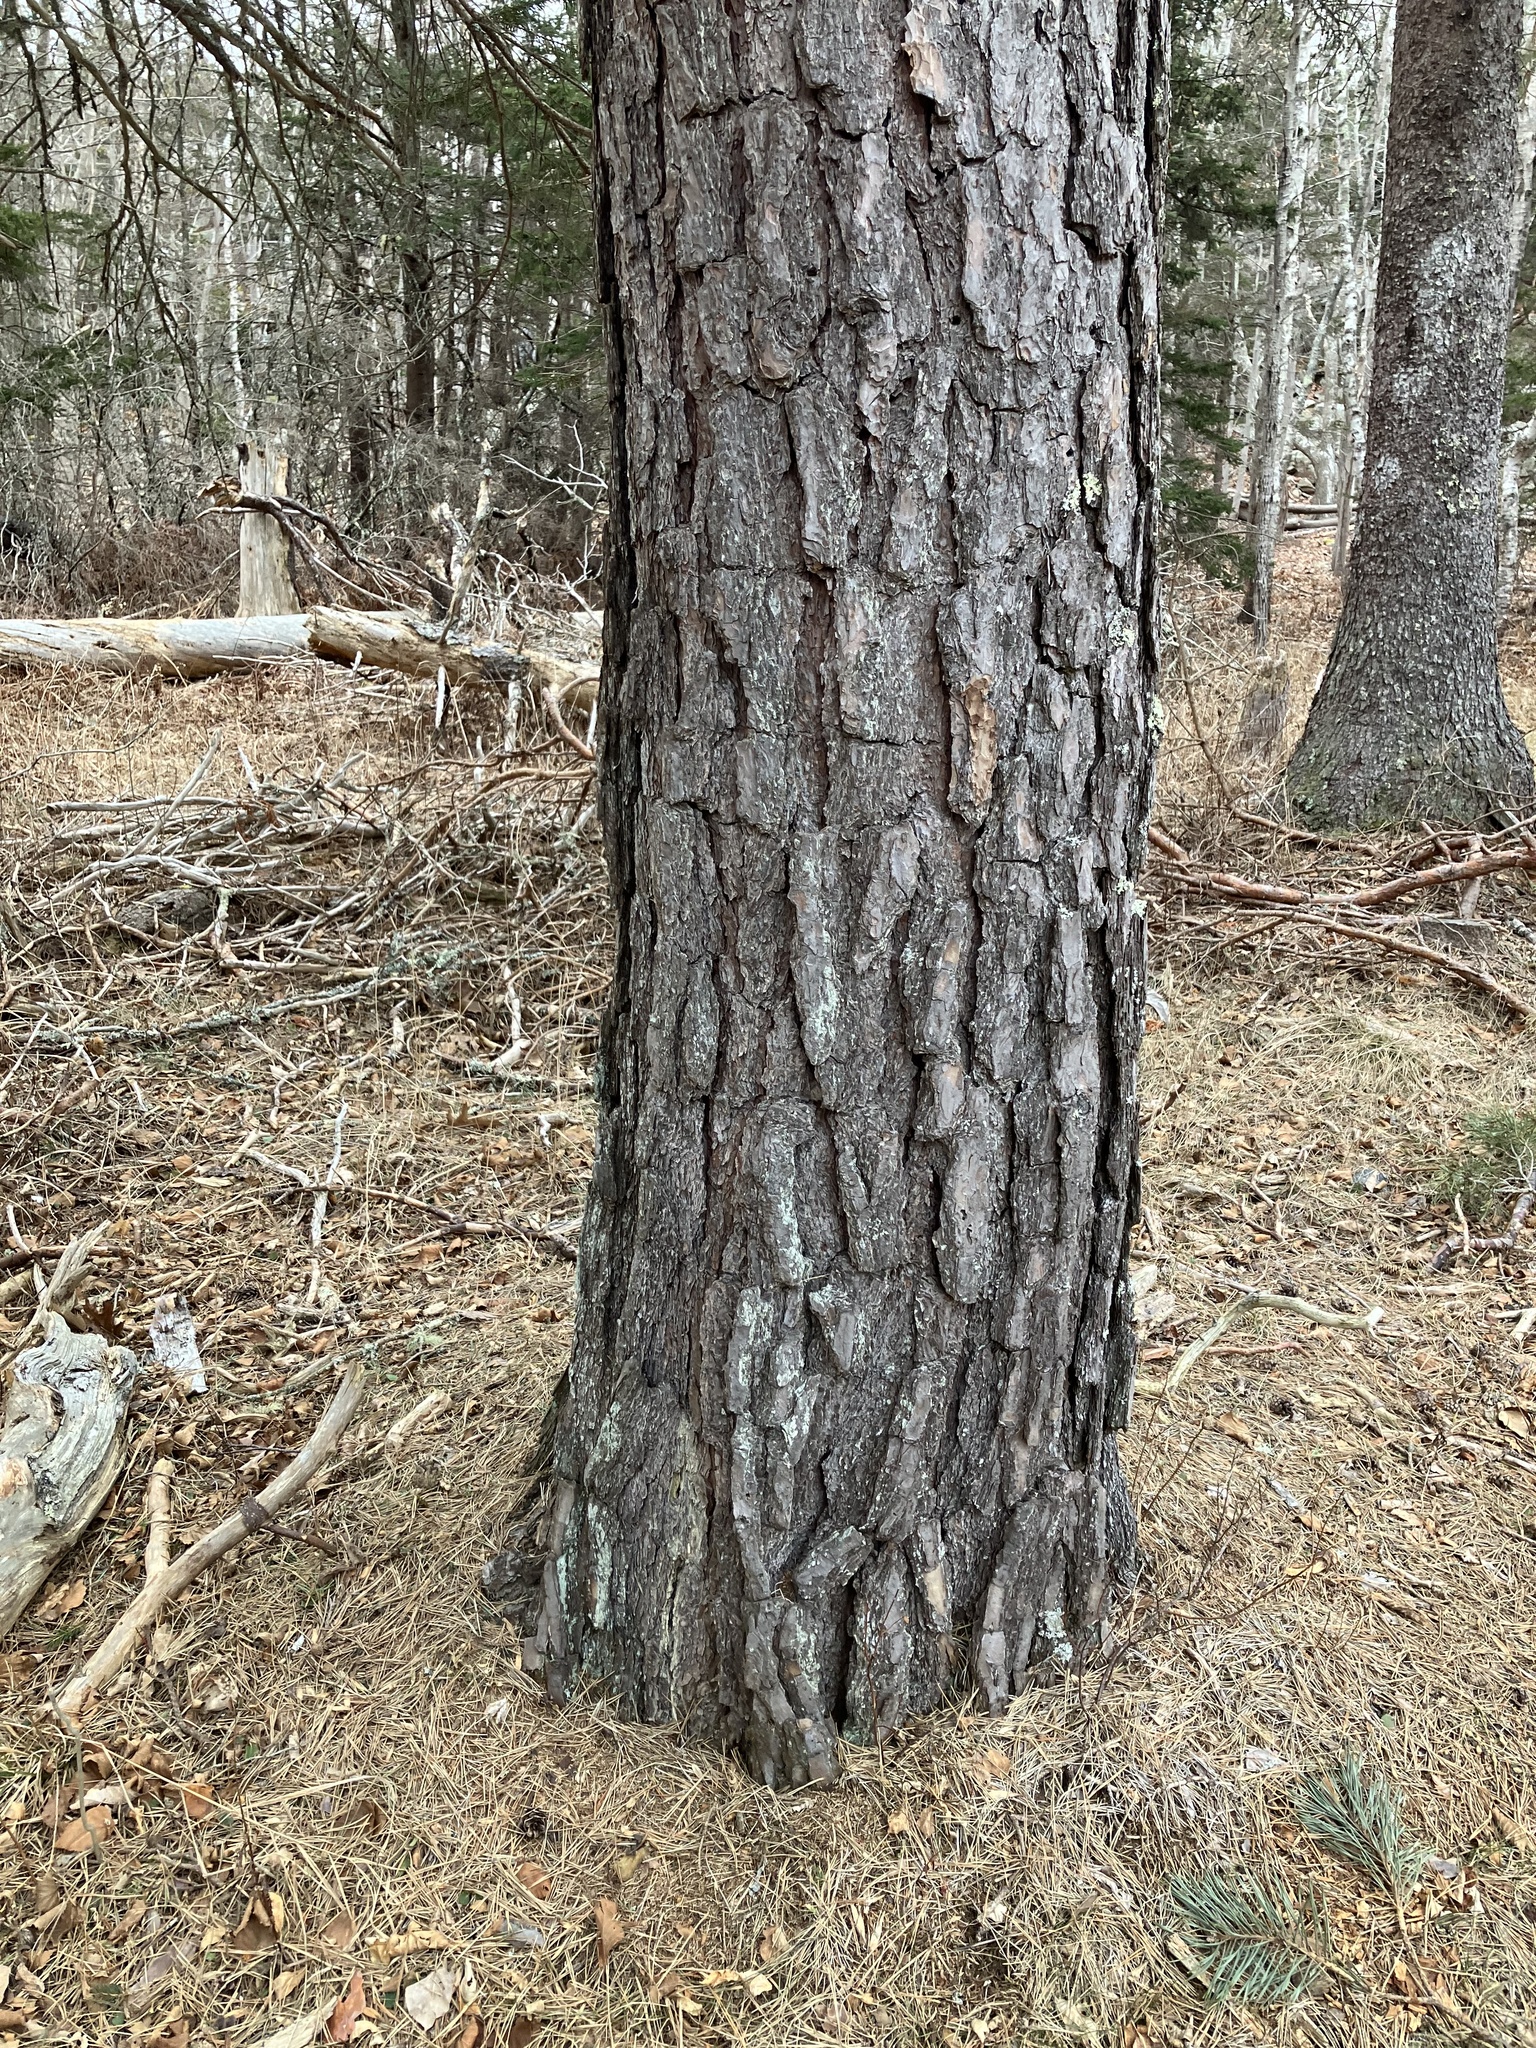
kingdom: Plantae
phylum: Tracheophyta
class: Pinopsida
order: Pinales
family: Pinaceae
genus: Pinus
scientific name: Pinus sylvestris
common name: Scots pine
